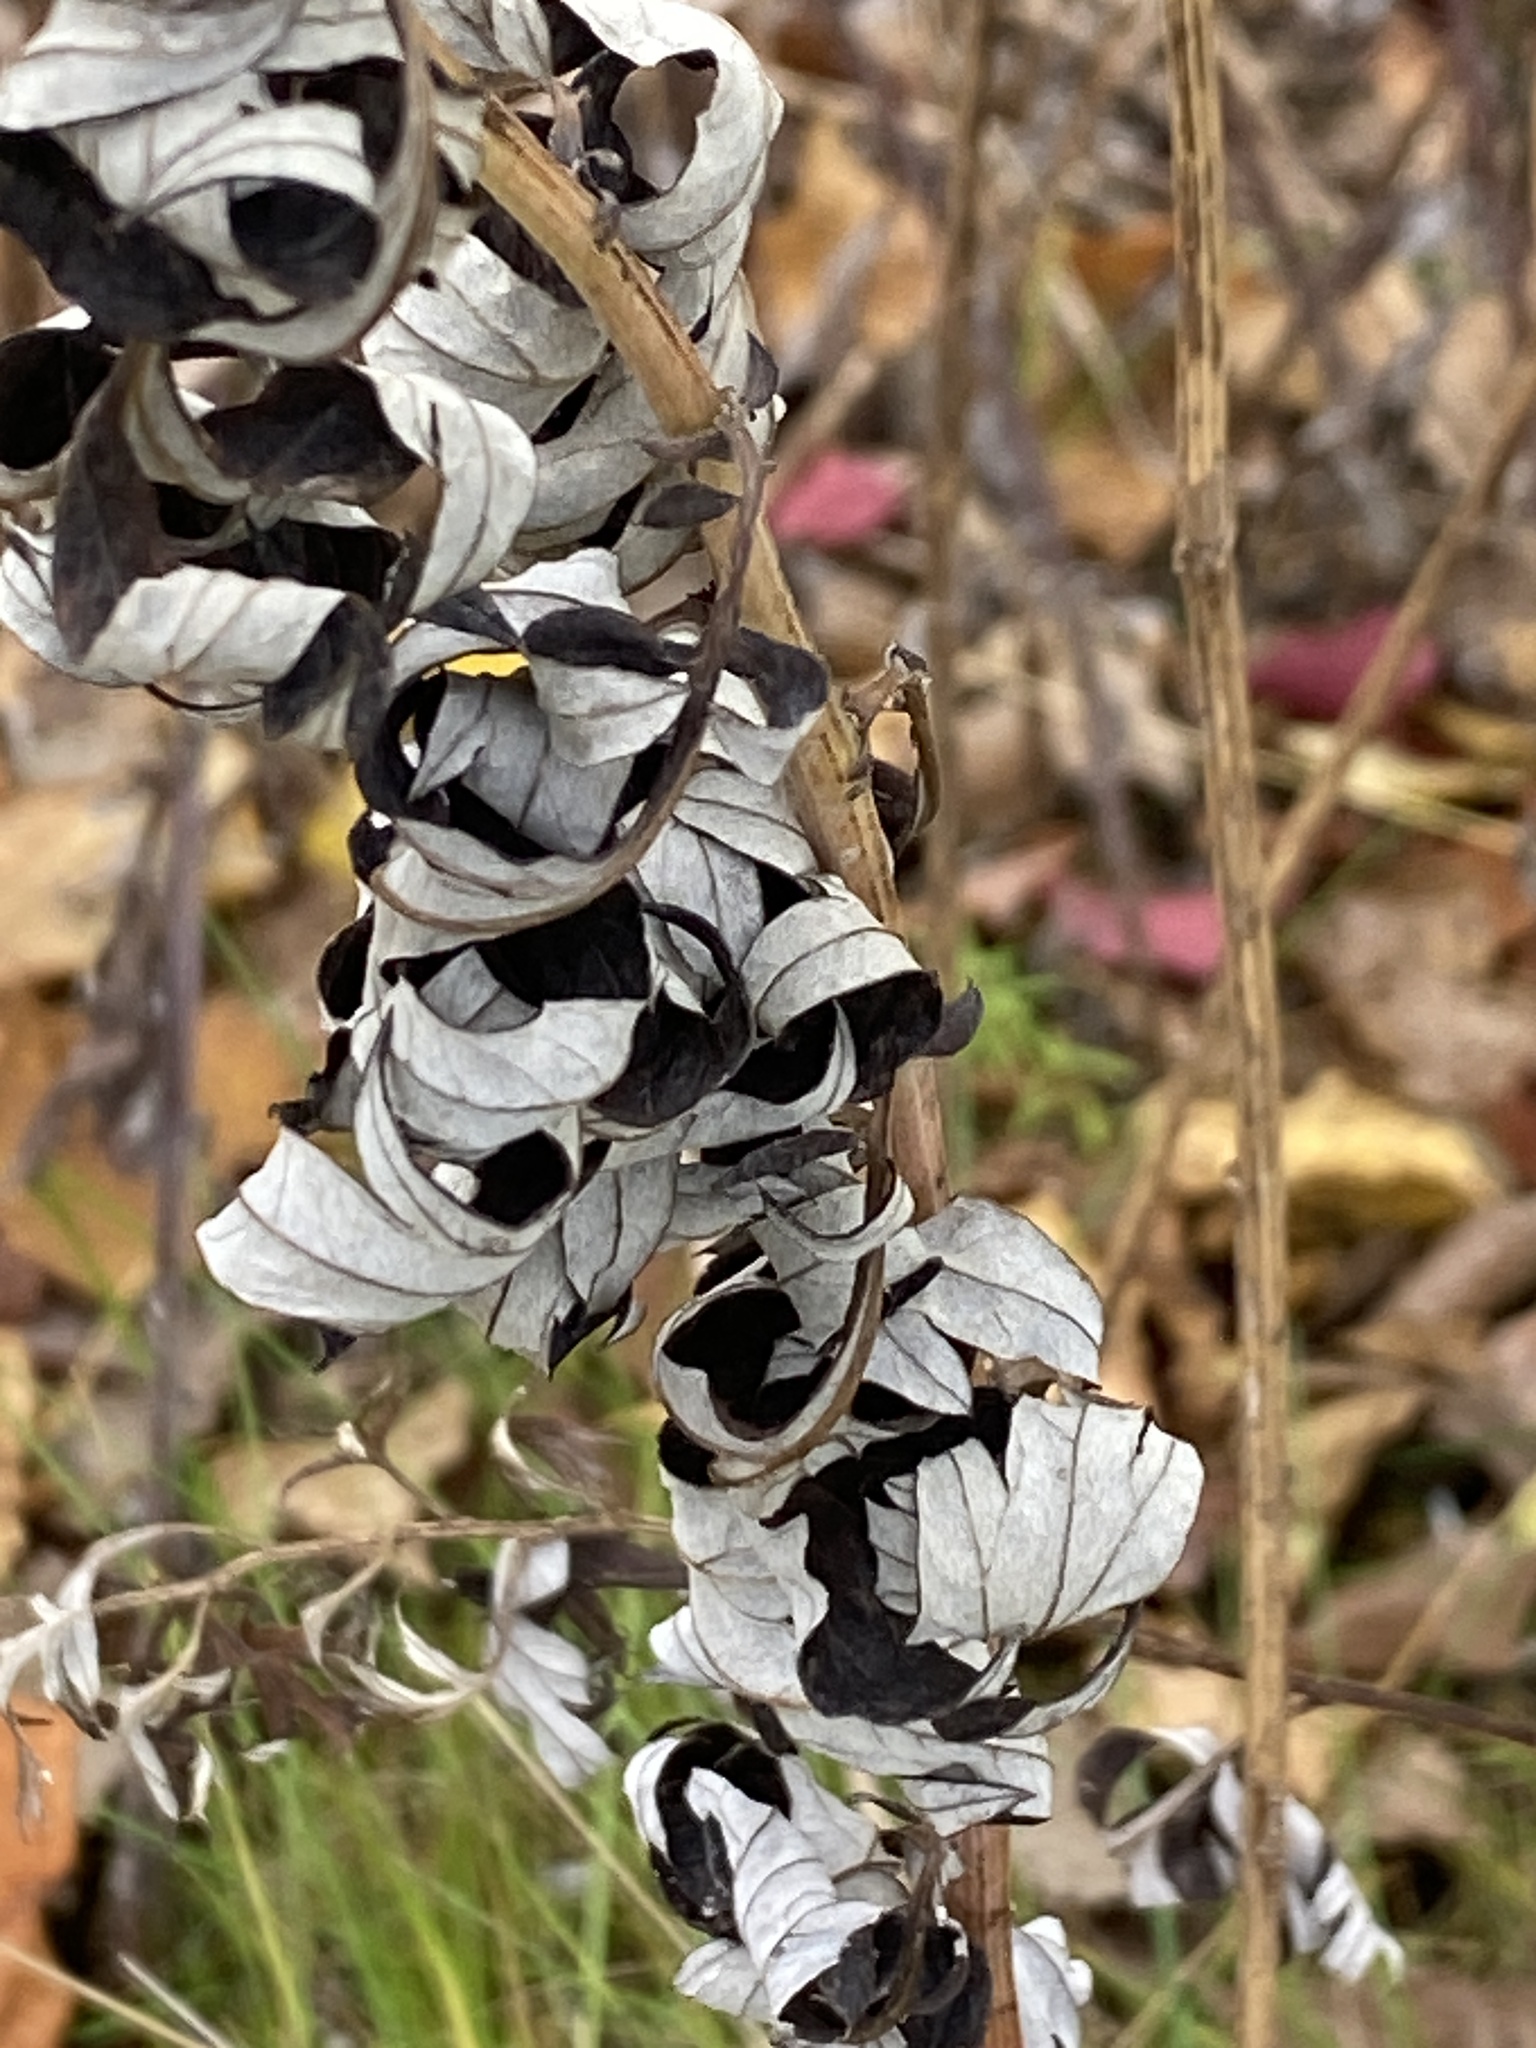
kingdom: Plantae
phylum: Tracheophyta
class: Magnoliopsida
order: Asterales
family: Asteraceae
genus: Artemisia
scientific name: Artemisia vulgaris
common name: Mugwort
